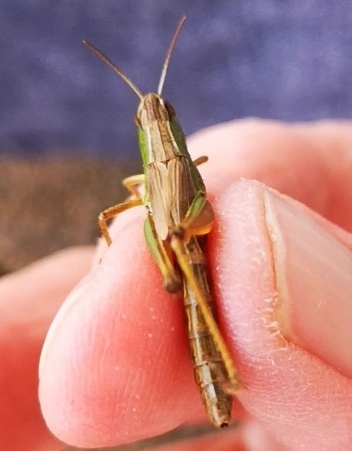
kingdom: Animalia
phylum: Arthropoda
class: Insecta
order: Orthoptera
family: Acrididae
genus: Pseudochorthippus
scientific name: Pseudochorthippus parallelus
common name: Meadow grasshopper
